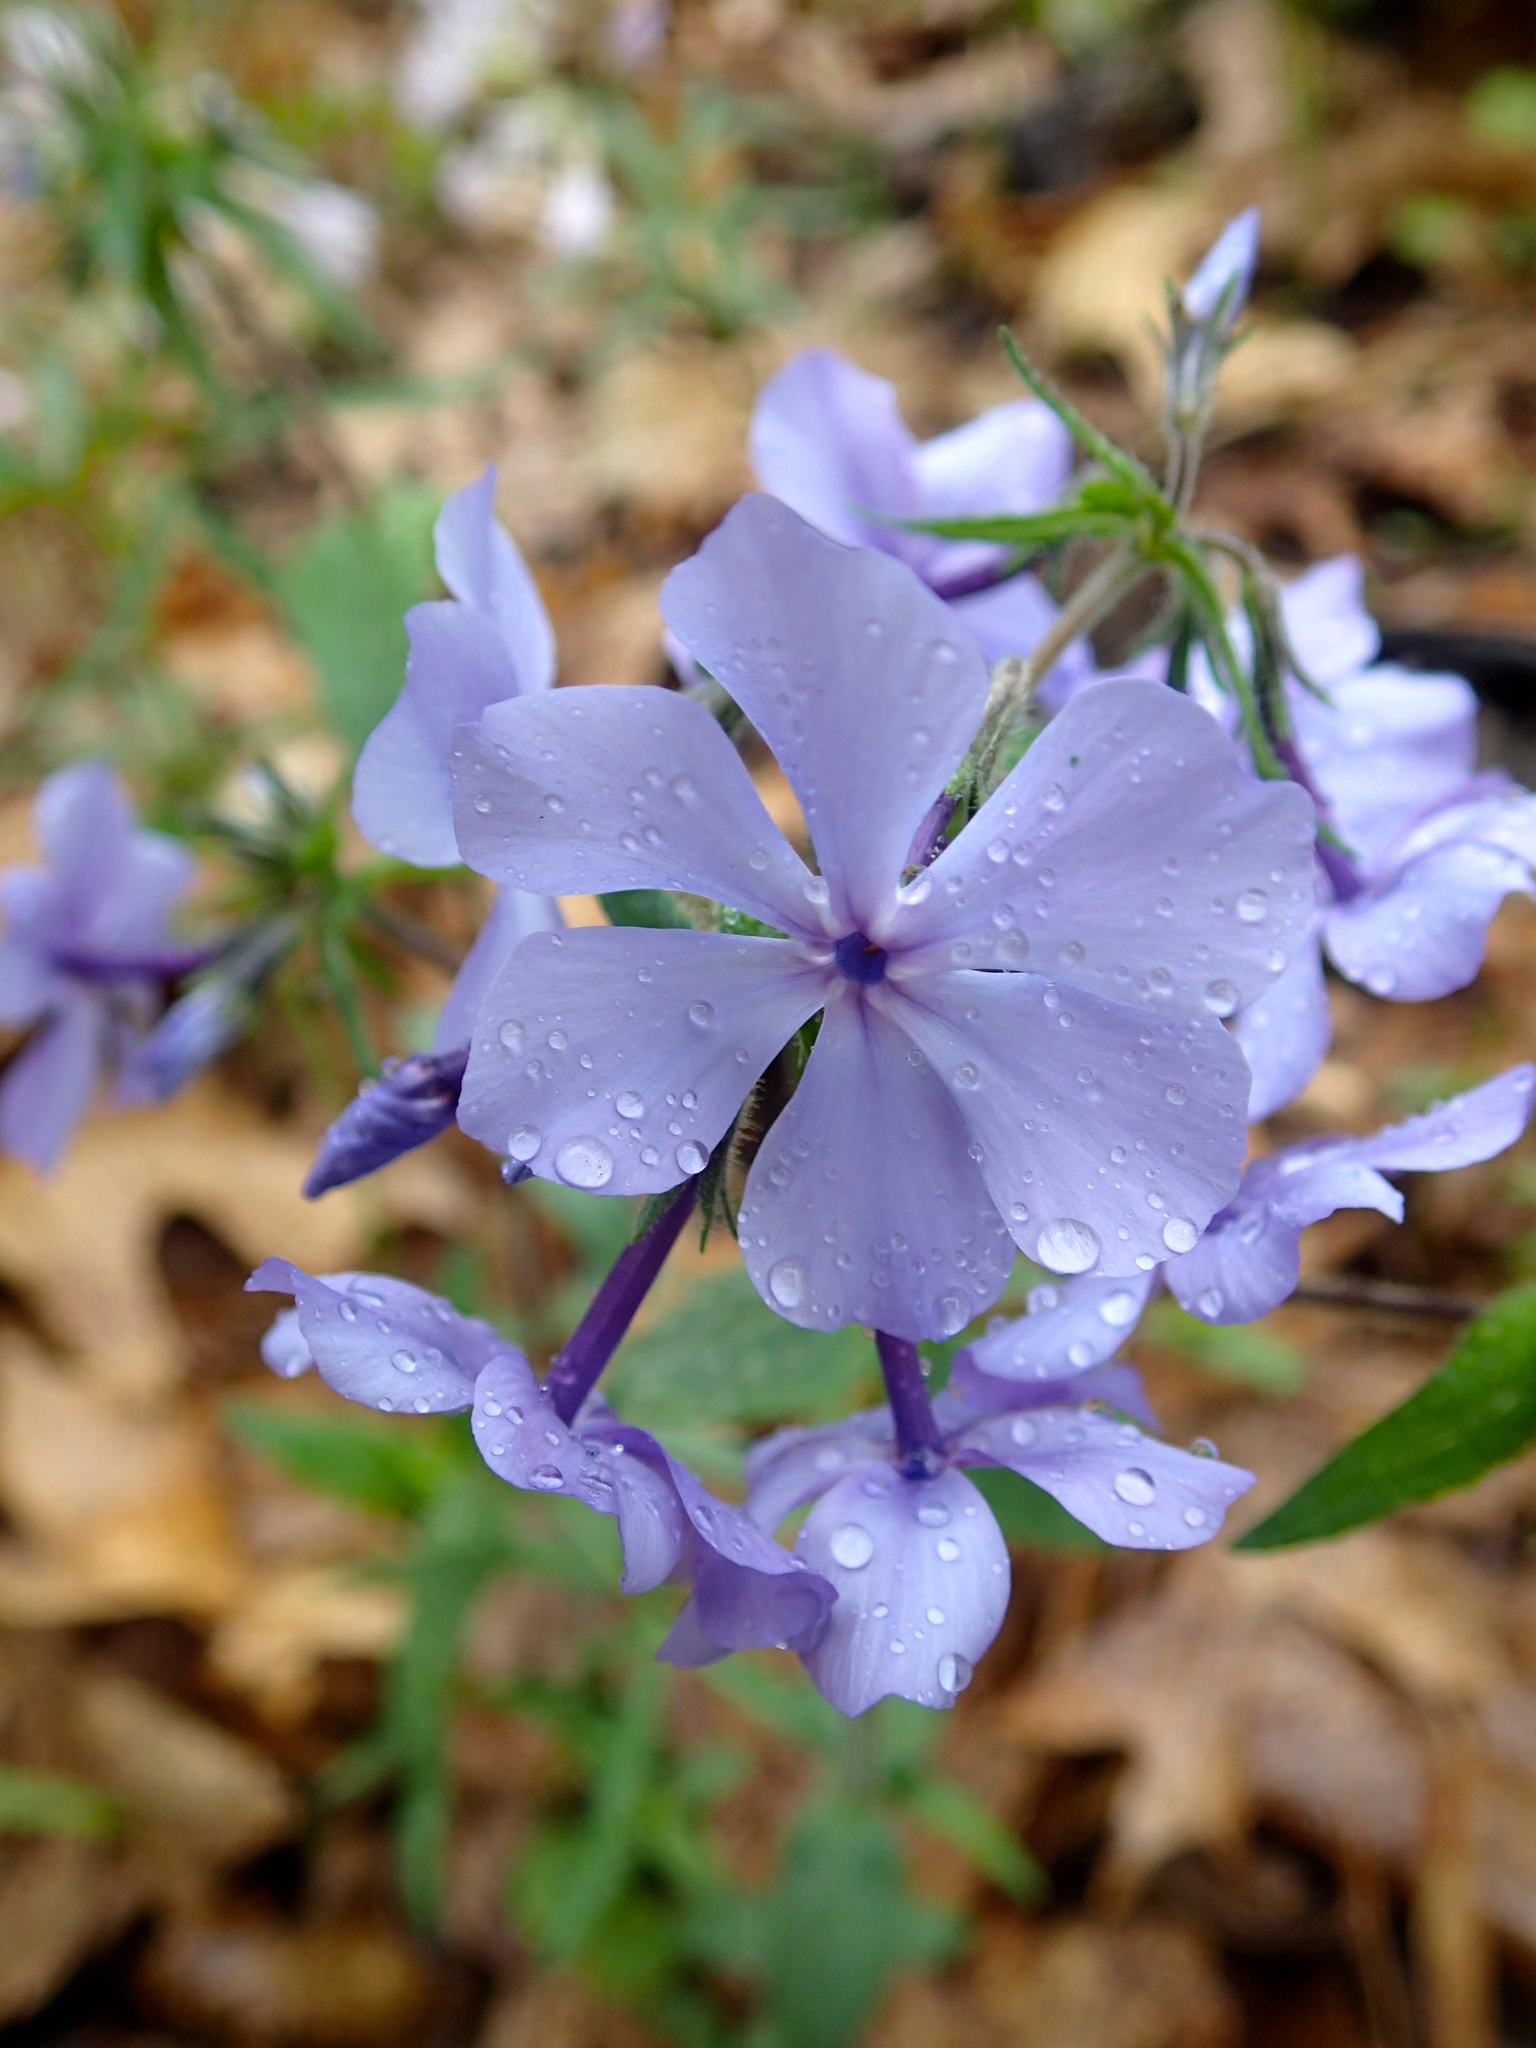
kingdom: Plantae
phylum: Tracheophyta
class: Magnoliopsida
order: Ericales
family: Polemoniaceae
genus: Phlox
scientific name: Phlox divaricata
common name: Blue phlox
